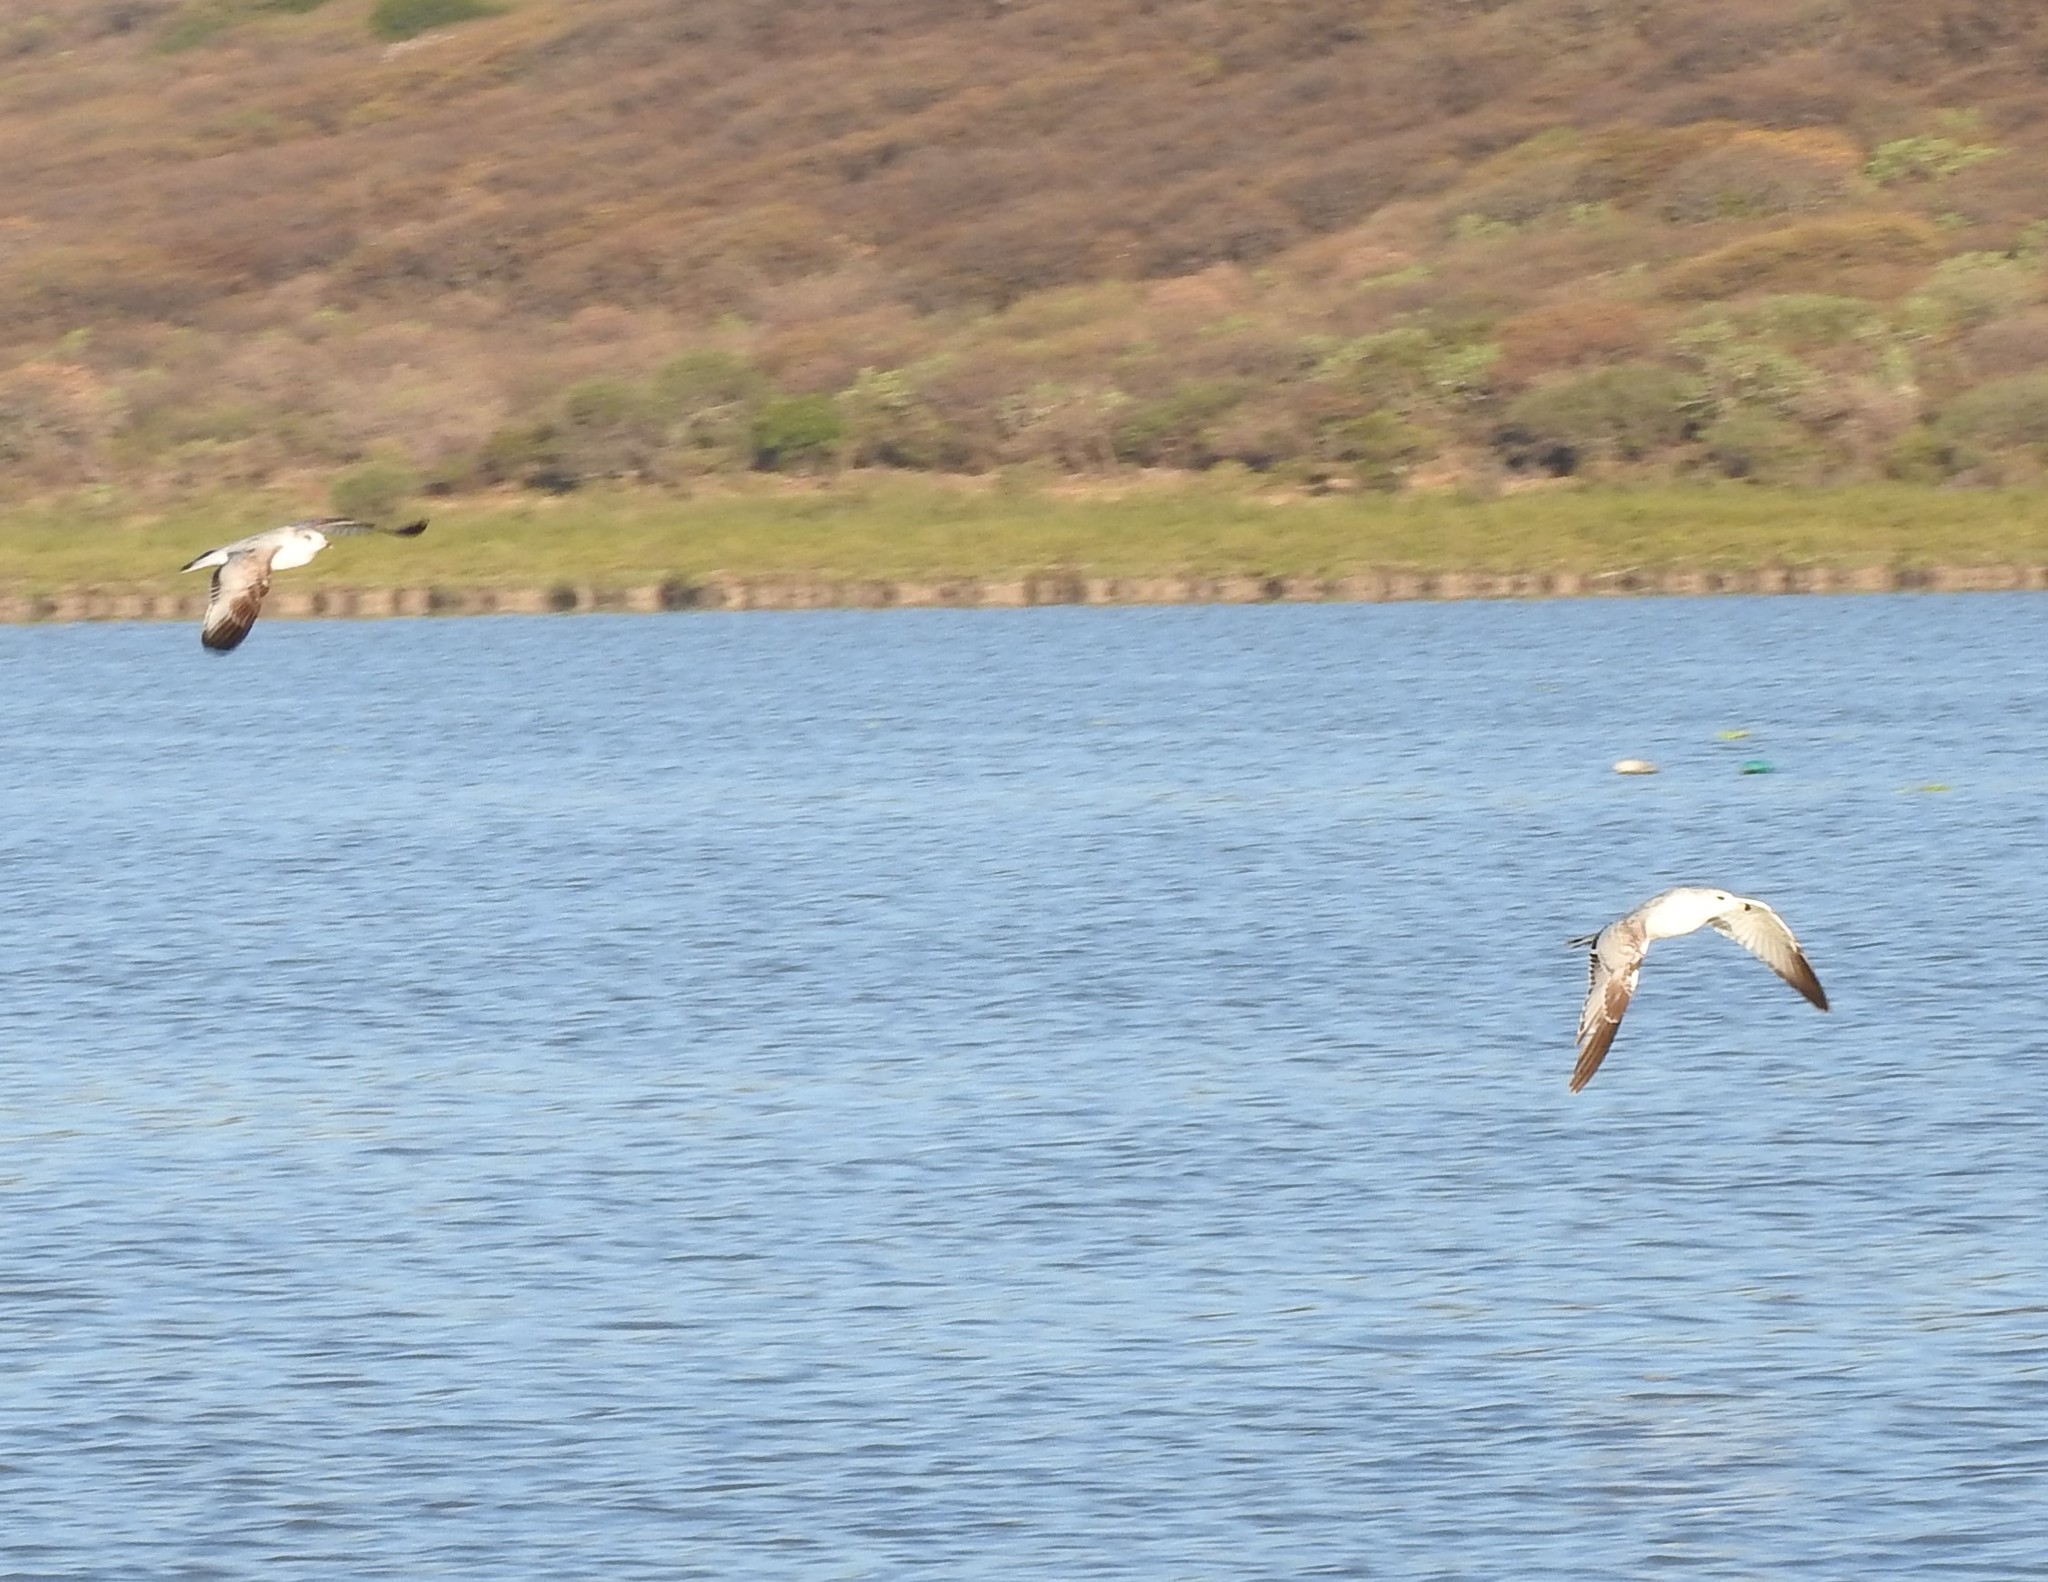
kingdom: Animalia
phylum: Chordata
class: Aves
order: Charadriiformes
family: Laridae
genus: Larus
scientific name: Larus delawarensis
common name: Ring-billed gull
